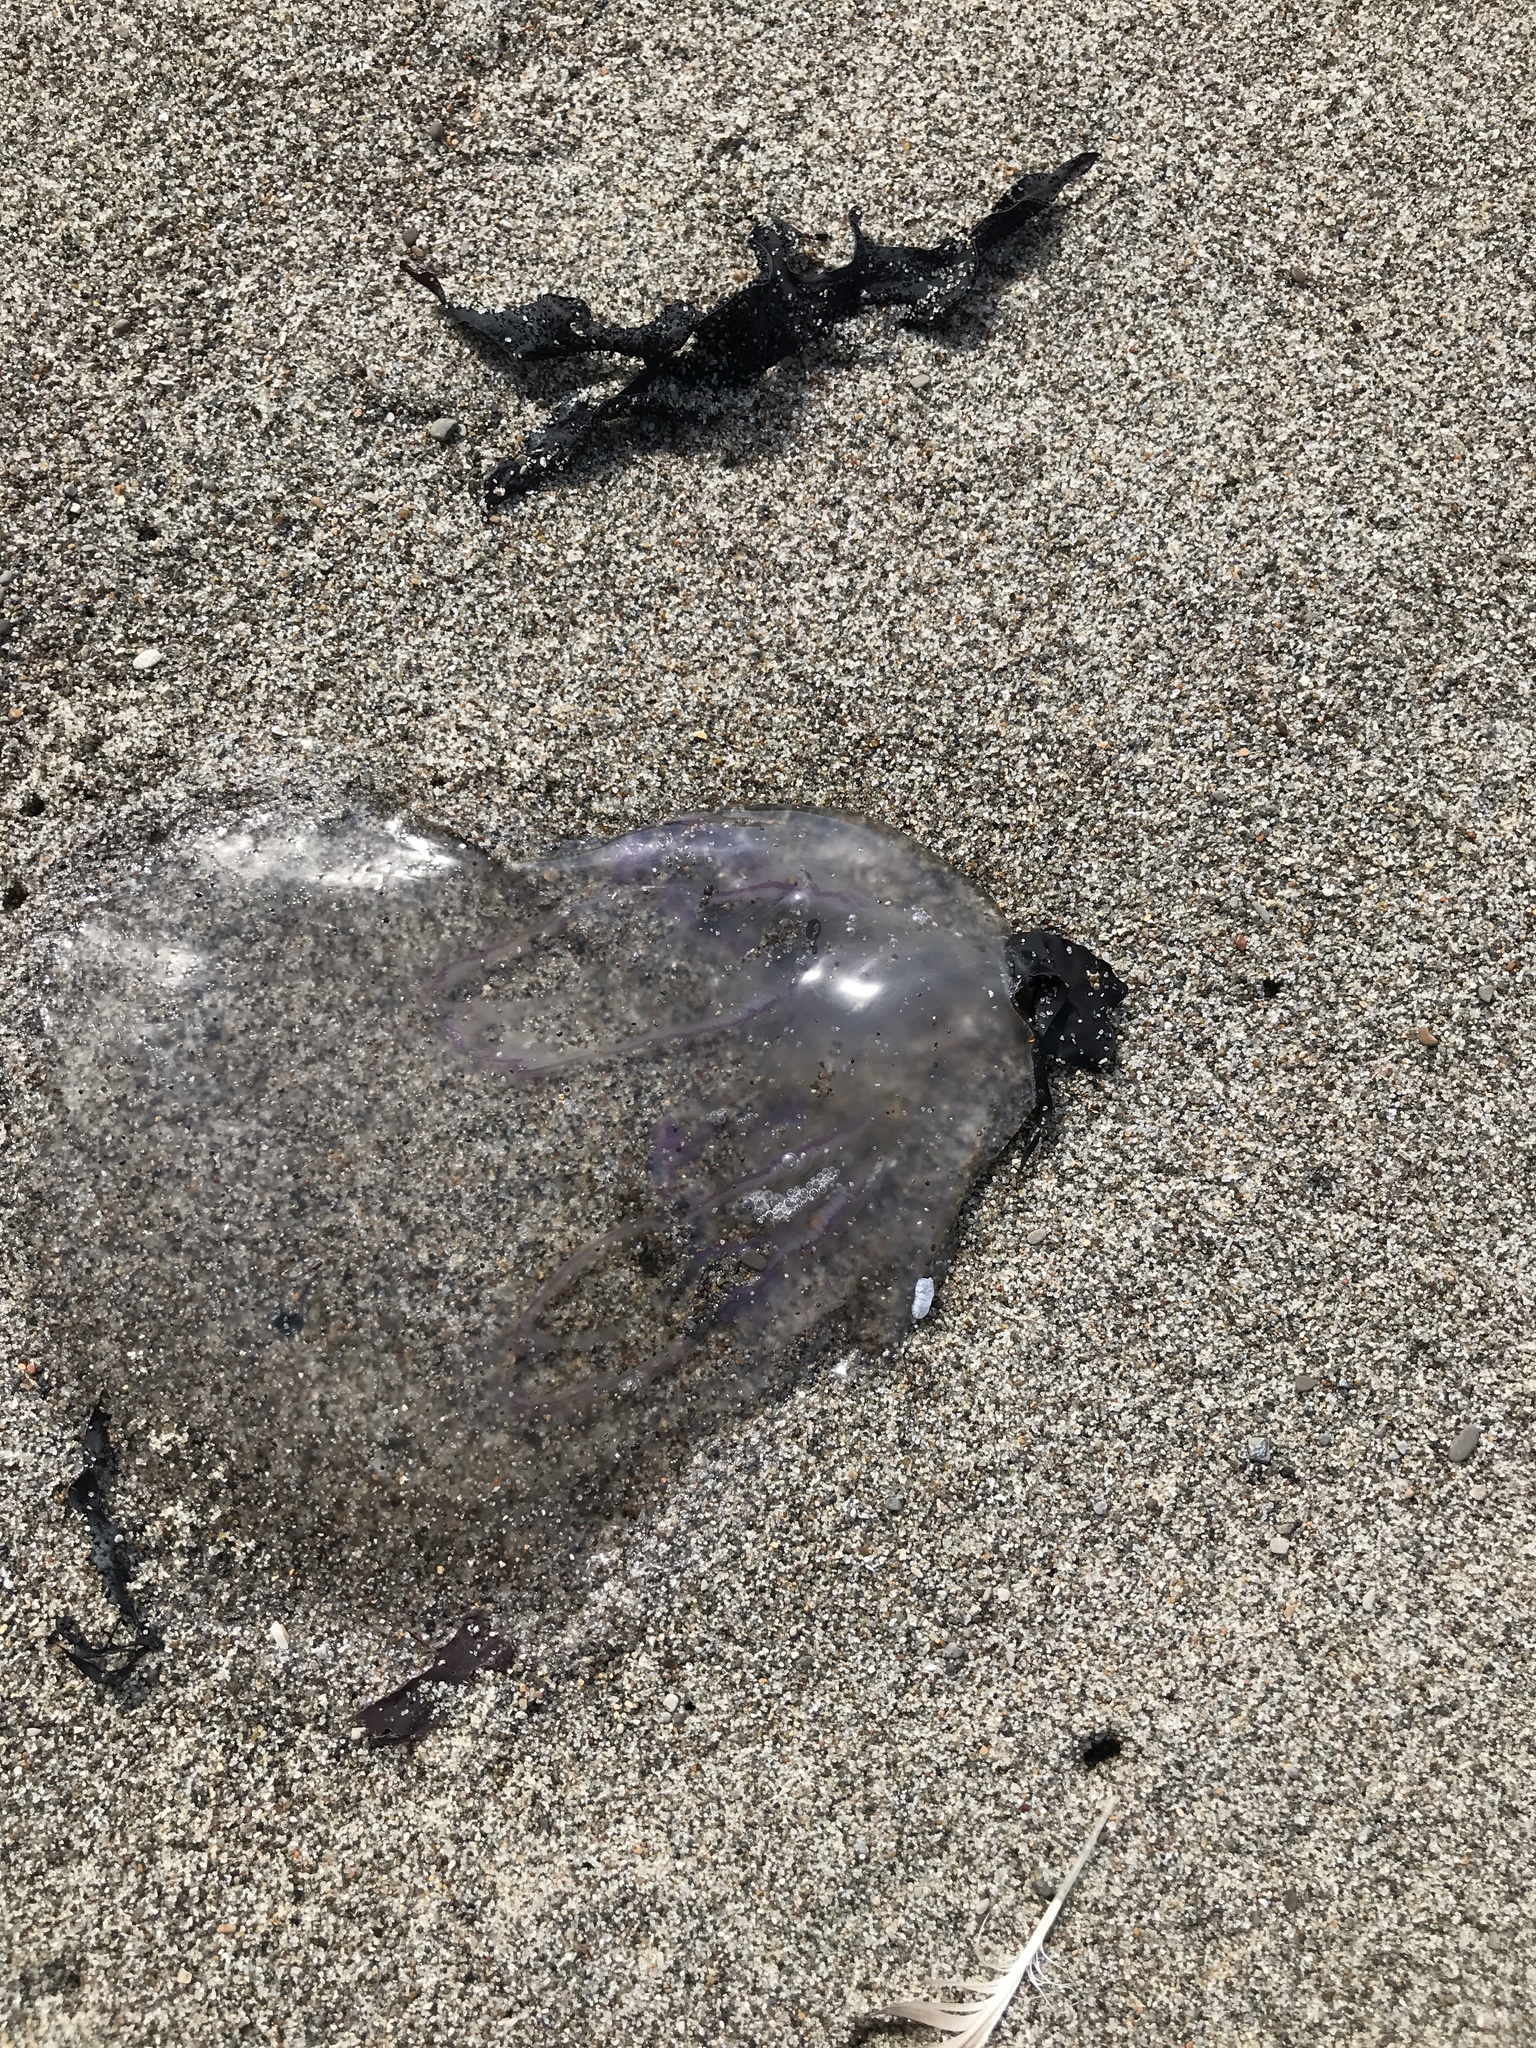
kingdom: Animalia
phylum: Cnidaria
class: Scyphozoa
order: Semaeostomeae
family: Ulmaridae
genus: Aurelia
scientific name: Aurelia labiata
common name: Pacific moon jelly
